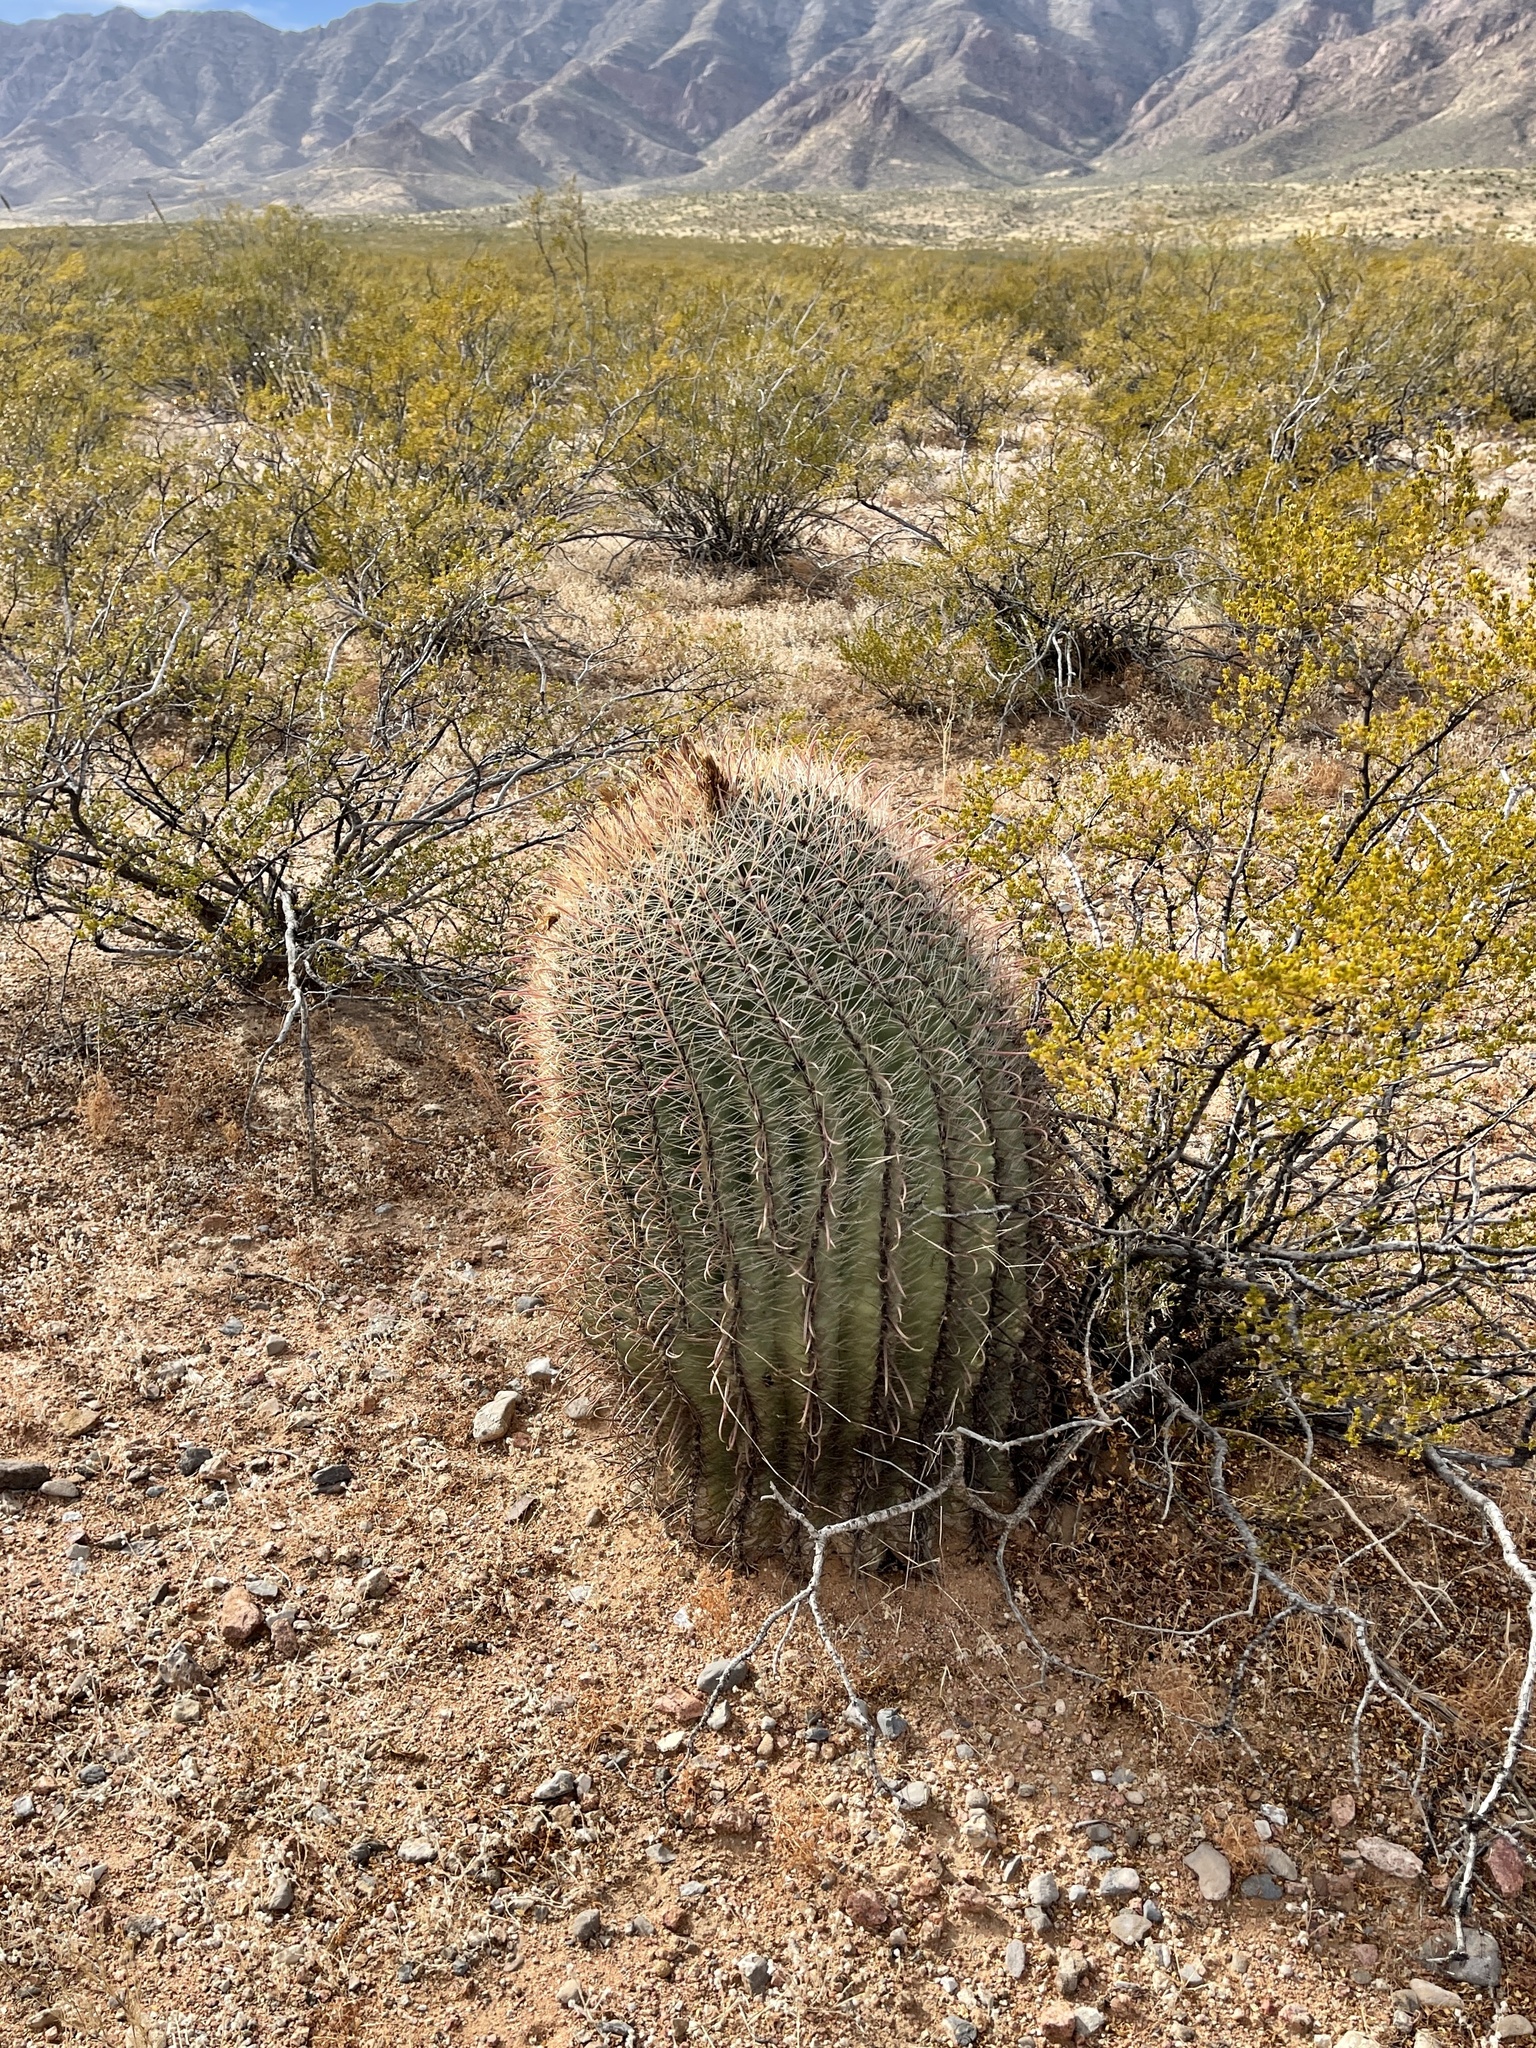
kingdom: Plantae
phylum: Tracheophyta
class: Magnoliopsida
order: Caryophyllales
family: Cactaceae
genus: Ferocactus
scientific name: Ferocactus wislizeni
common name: Candy barrel cactus
